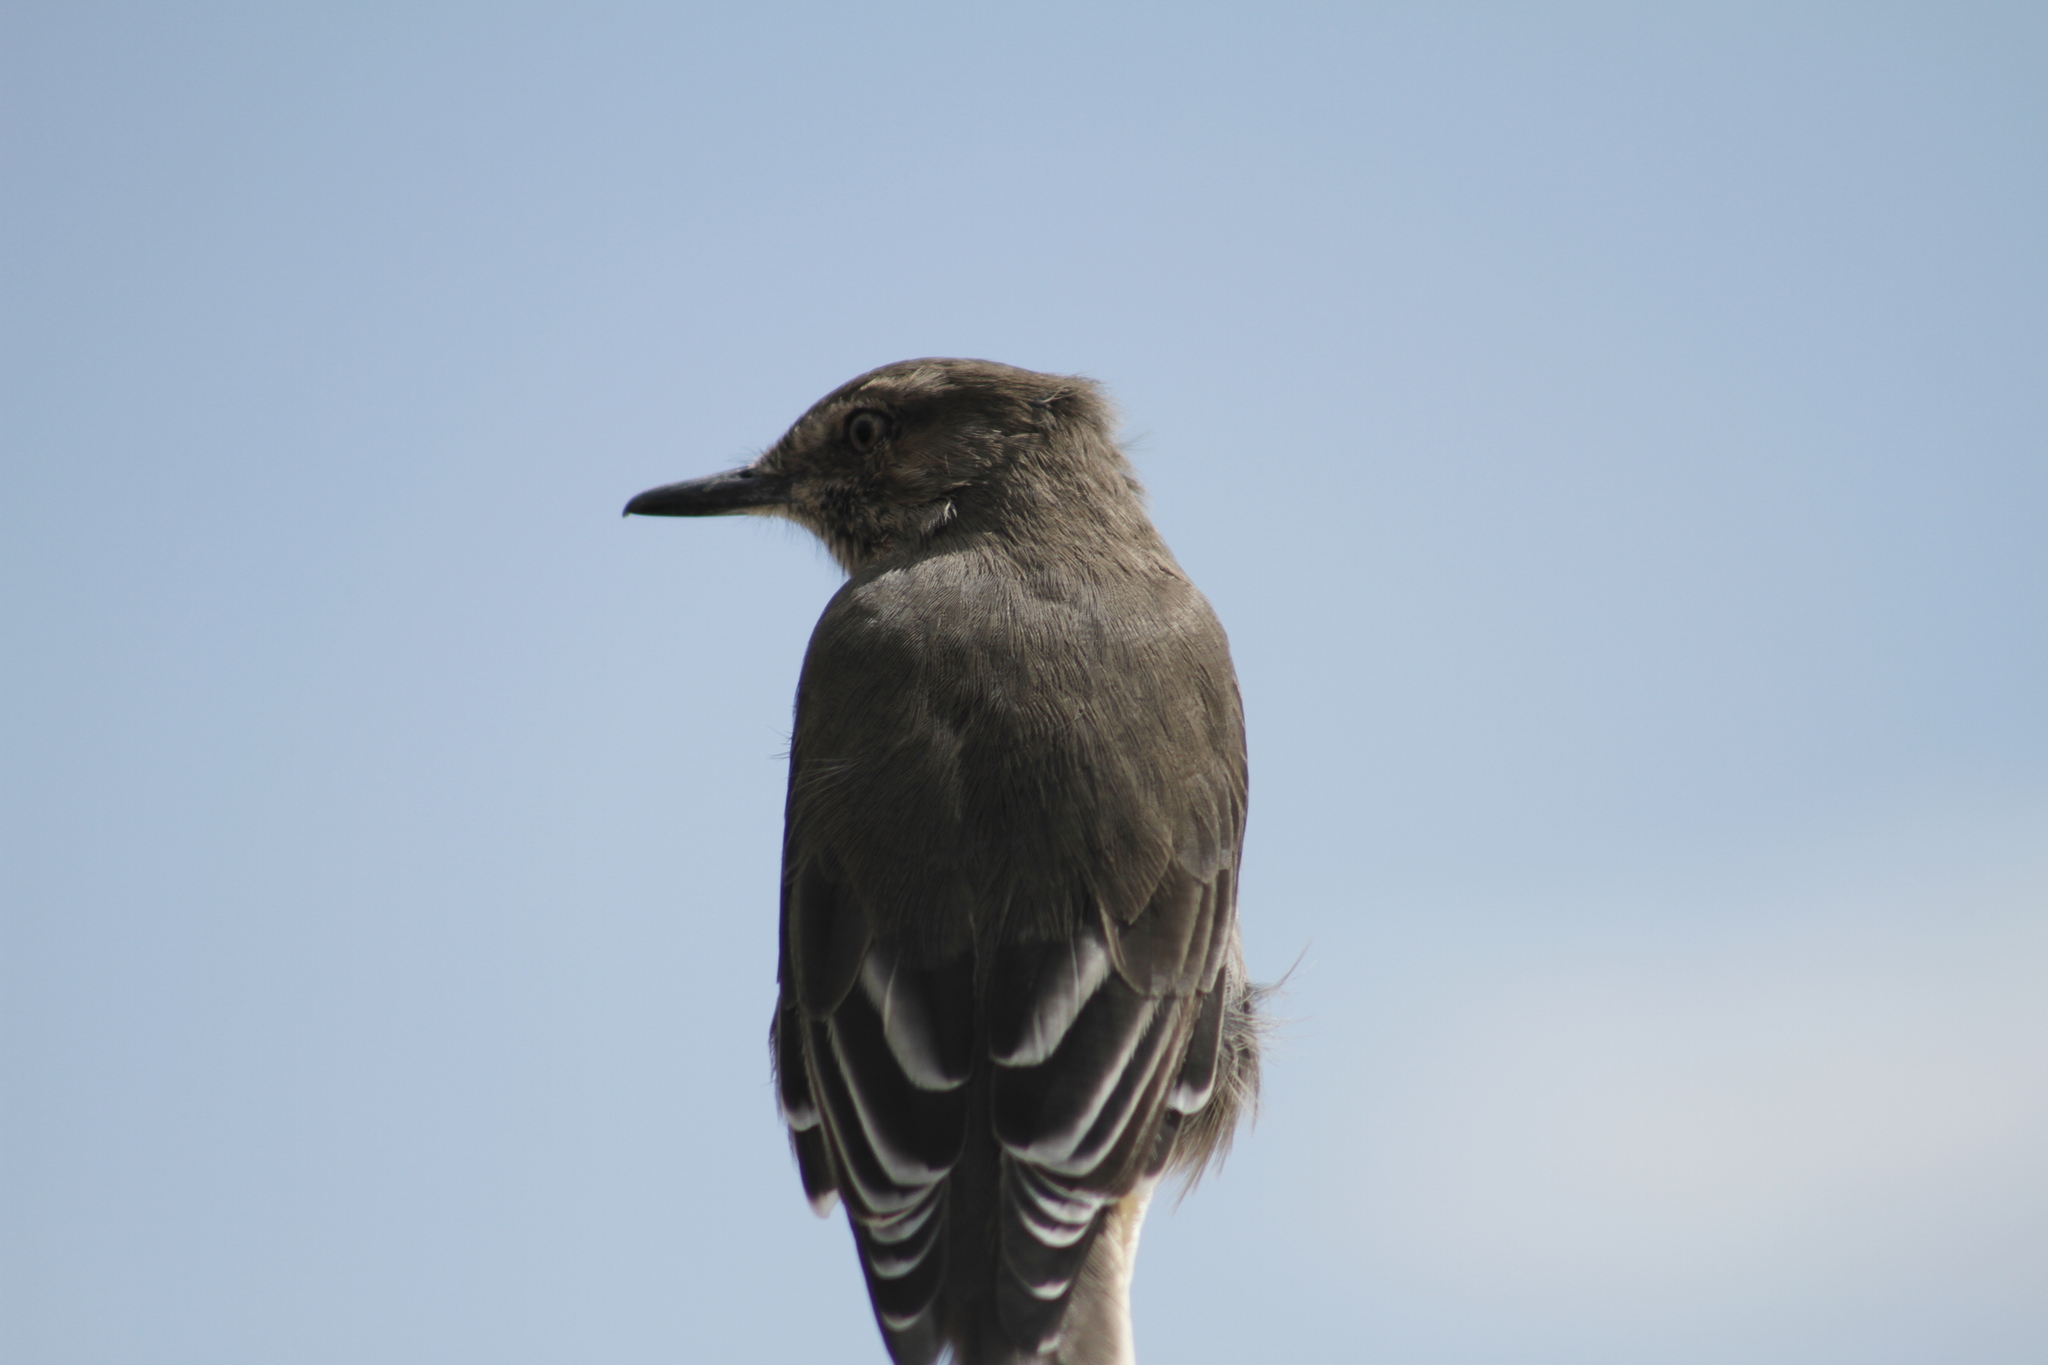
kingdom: Animalia
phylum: Chordata
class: Aves
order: Passeriformes
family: Tyrannidae
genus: Agriornis
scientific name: Agriornis montanus
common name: Black-billed shrike-tyrant
